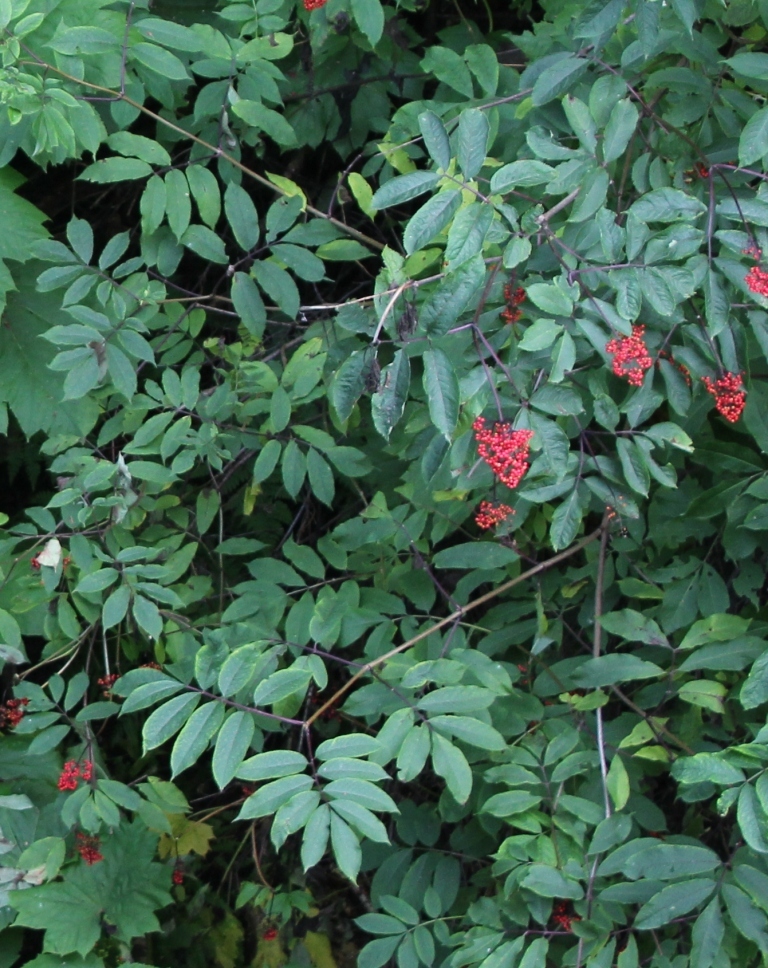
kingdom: Plantae
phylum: Tracheophyta
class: Magnoliopsida
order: Dipsacales
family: Viburnaceae
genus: Sambucus
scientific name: Sambucus racemosa
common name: Red-berried elder
